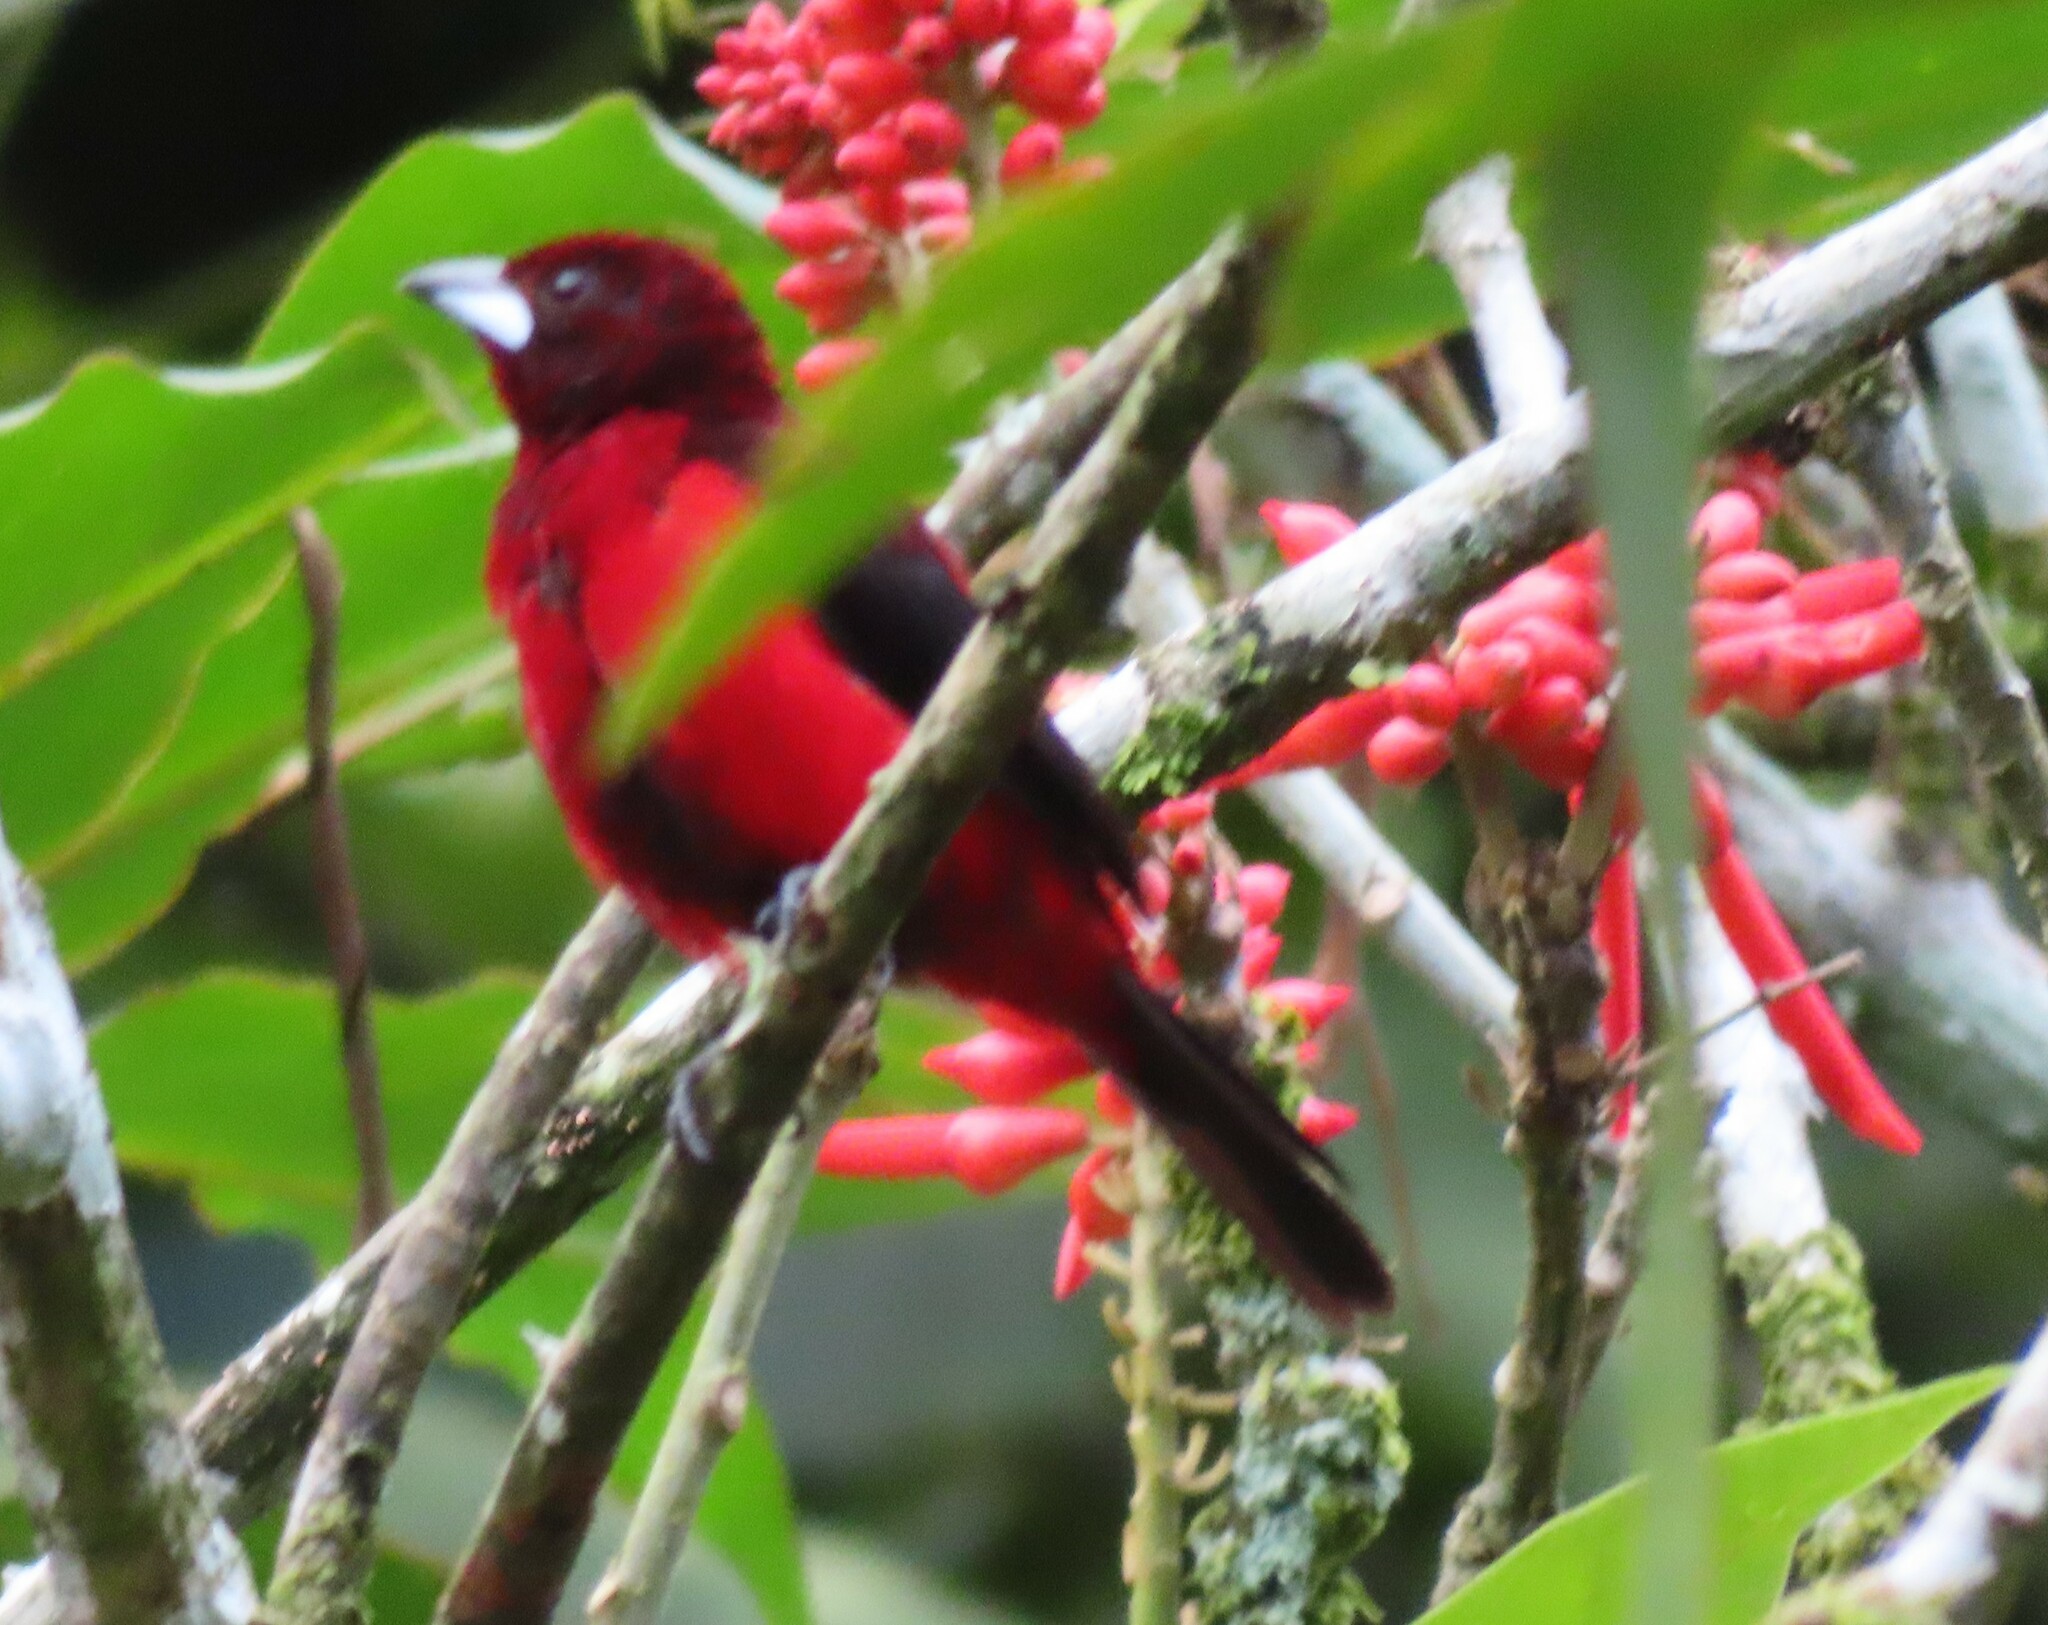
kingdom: Animalia
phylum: Chordata
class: Aves
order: Passeriformes
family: Thraupidae
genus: Ramphocelus
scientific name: Ramphocelus dimidiatus
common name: Crimson-backed tanager
